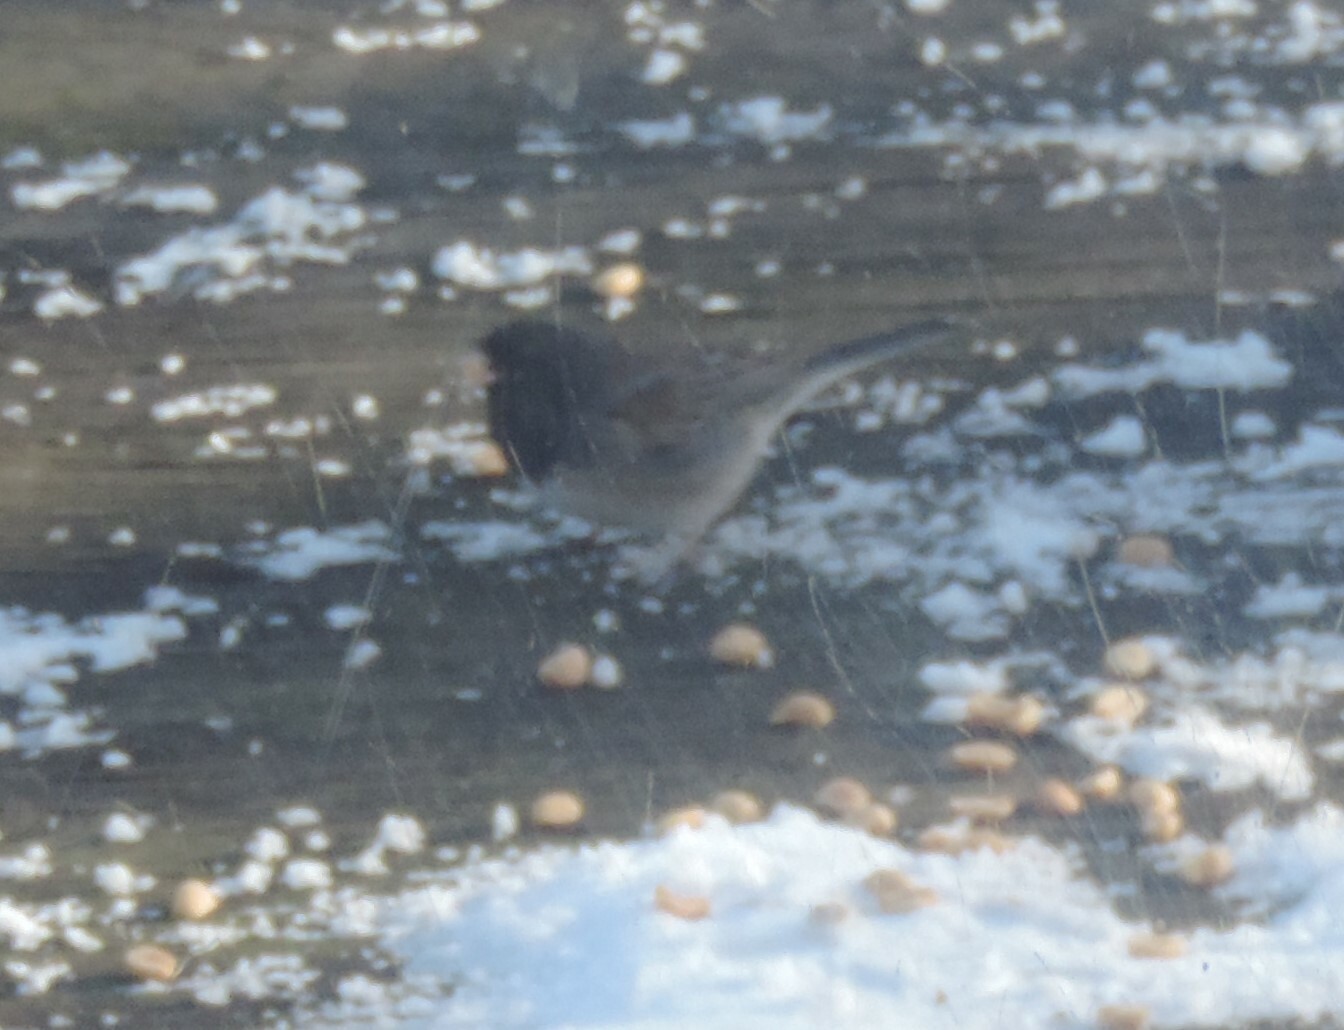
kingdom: Animalia
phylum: Chordata
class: Aves
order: Passeriformes
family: Passerellidae
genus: Junco
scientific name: Junco hyemalis
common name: Dark-eyed junco
